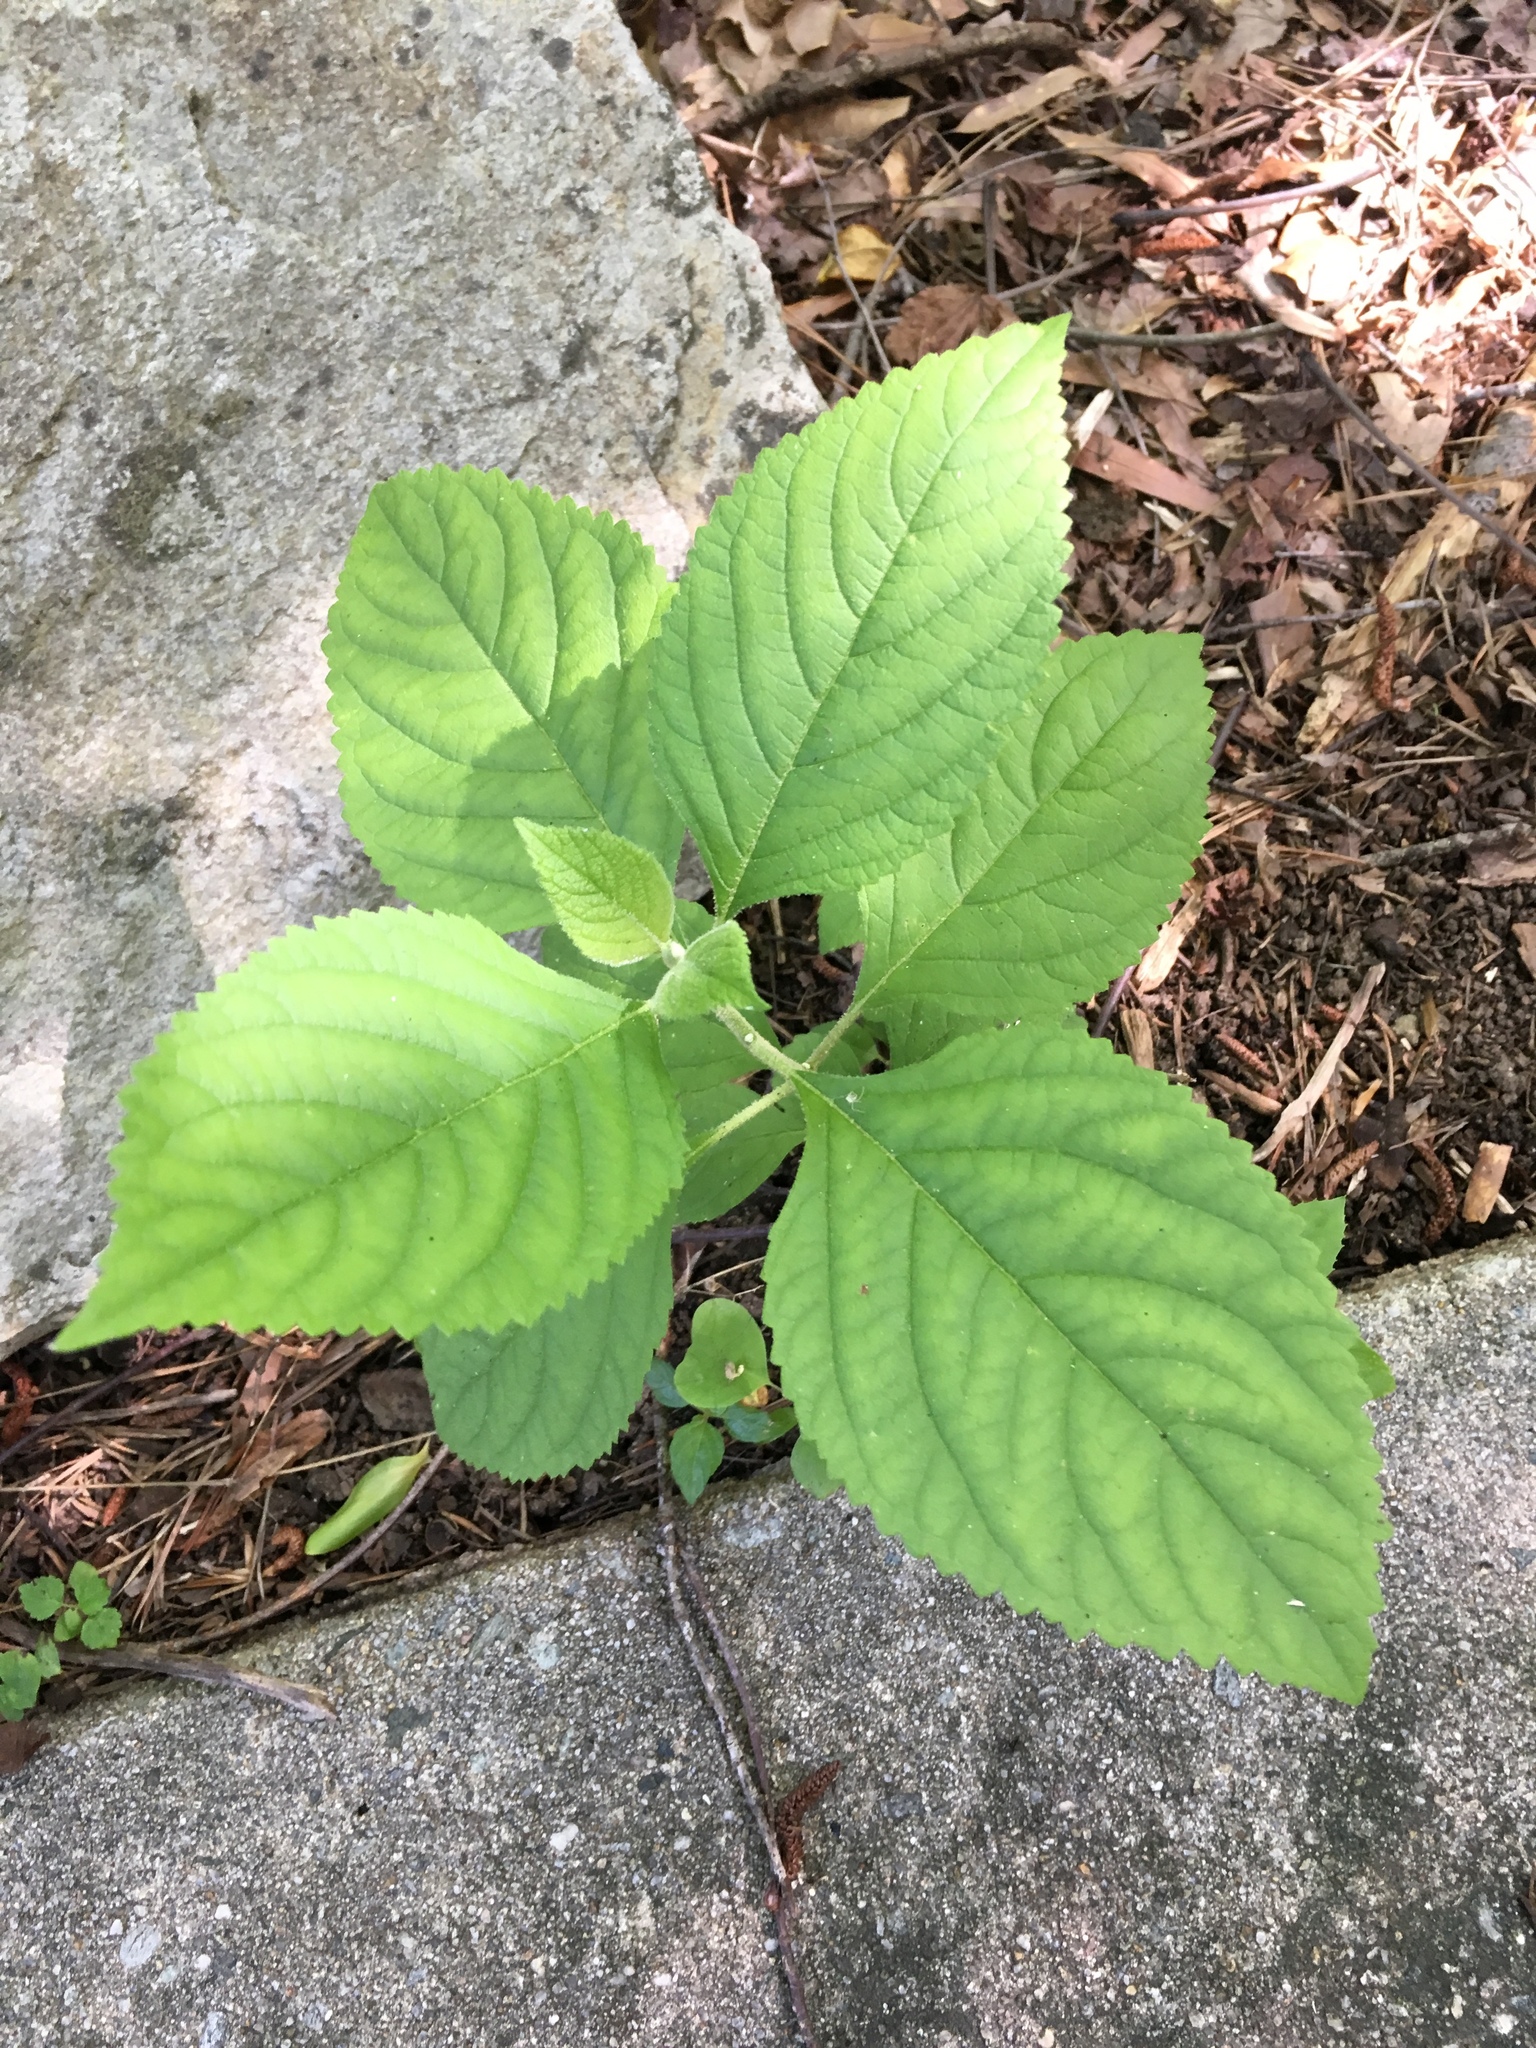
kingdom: Plantae
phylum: Tracheophyta
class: Magnoliopsida
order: Lamiales
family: Lamiaceae
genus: Callicarpa
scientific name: Callicarpa americana
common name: American beautyberry
